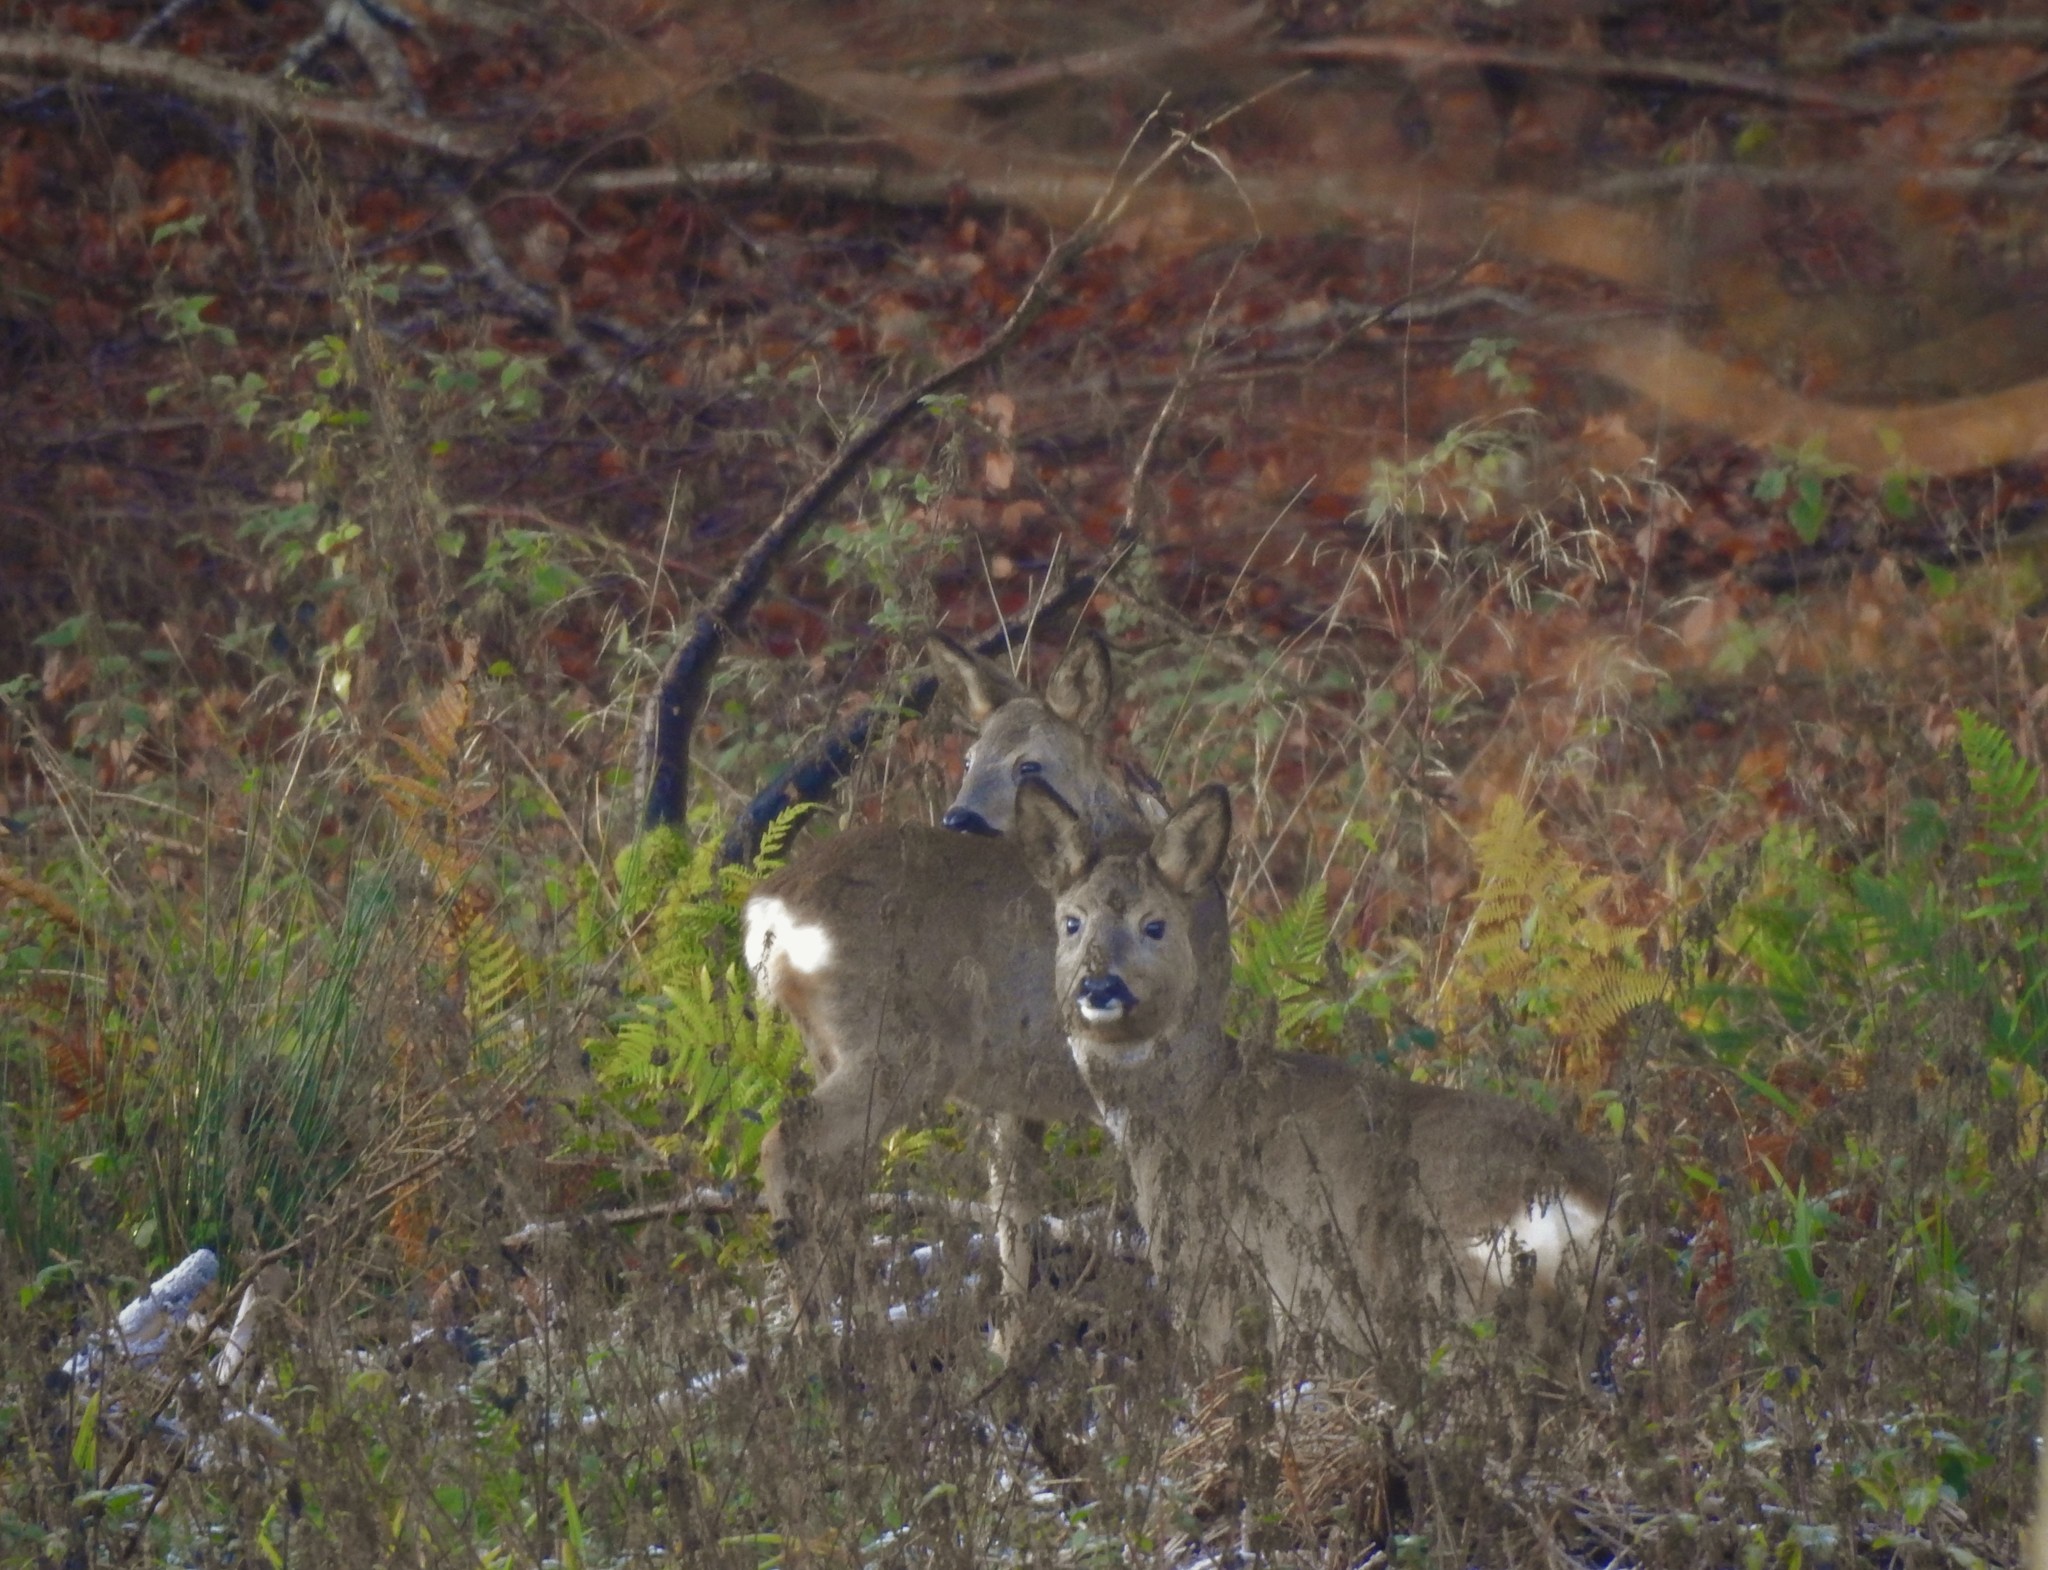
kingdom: Animalia
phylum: Chordata
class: Mammalia
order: Artiodactyla
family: Cervidae
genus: Capreolus
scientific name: Capreolus capreolus
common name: Western roe deer
